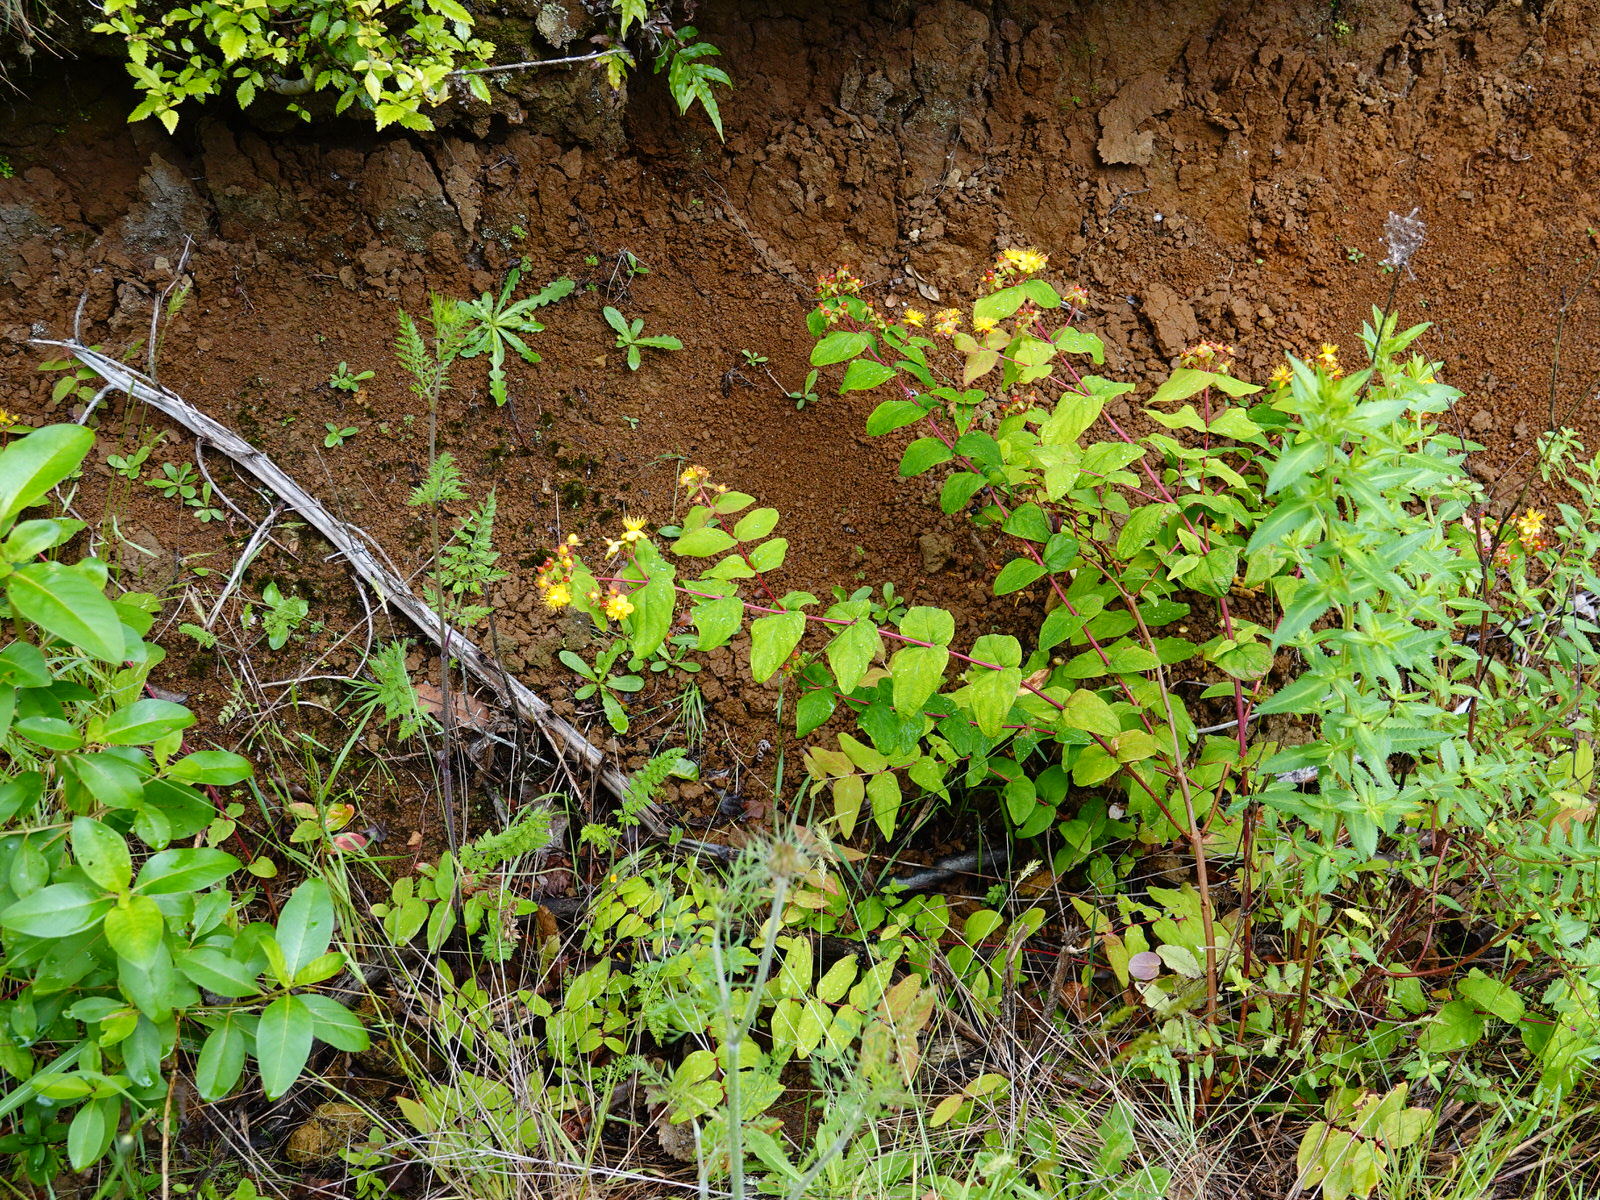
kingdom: Plantae
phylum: Tracheophyta
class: Magnoliopsida
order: Malpighiales
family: Hypericaceae
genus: Hypericum
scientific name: Hypericum androsaemum
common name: Sweet-amber
